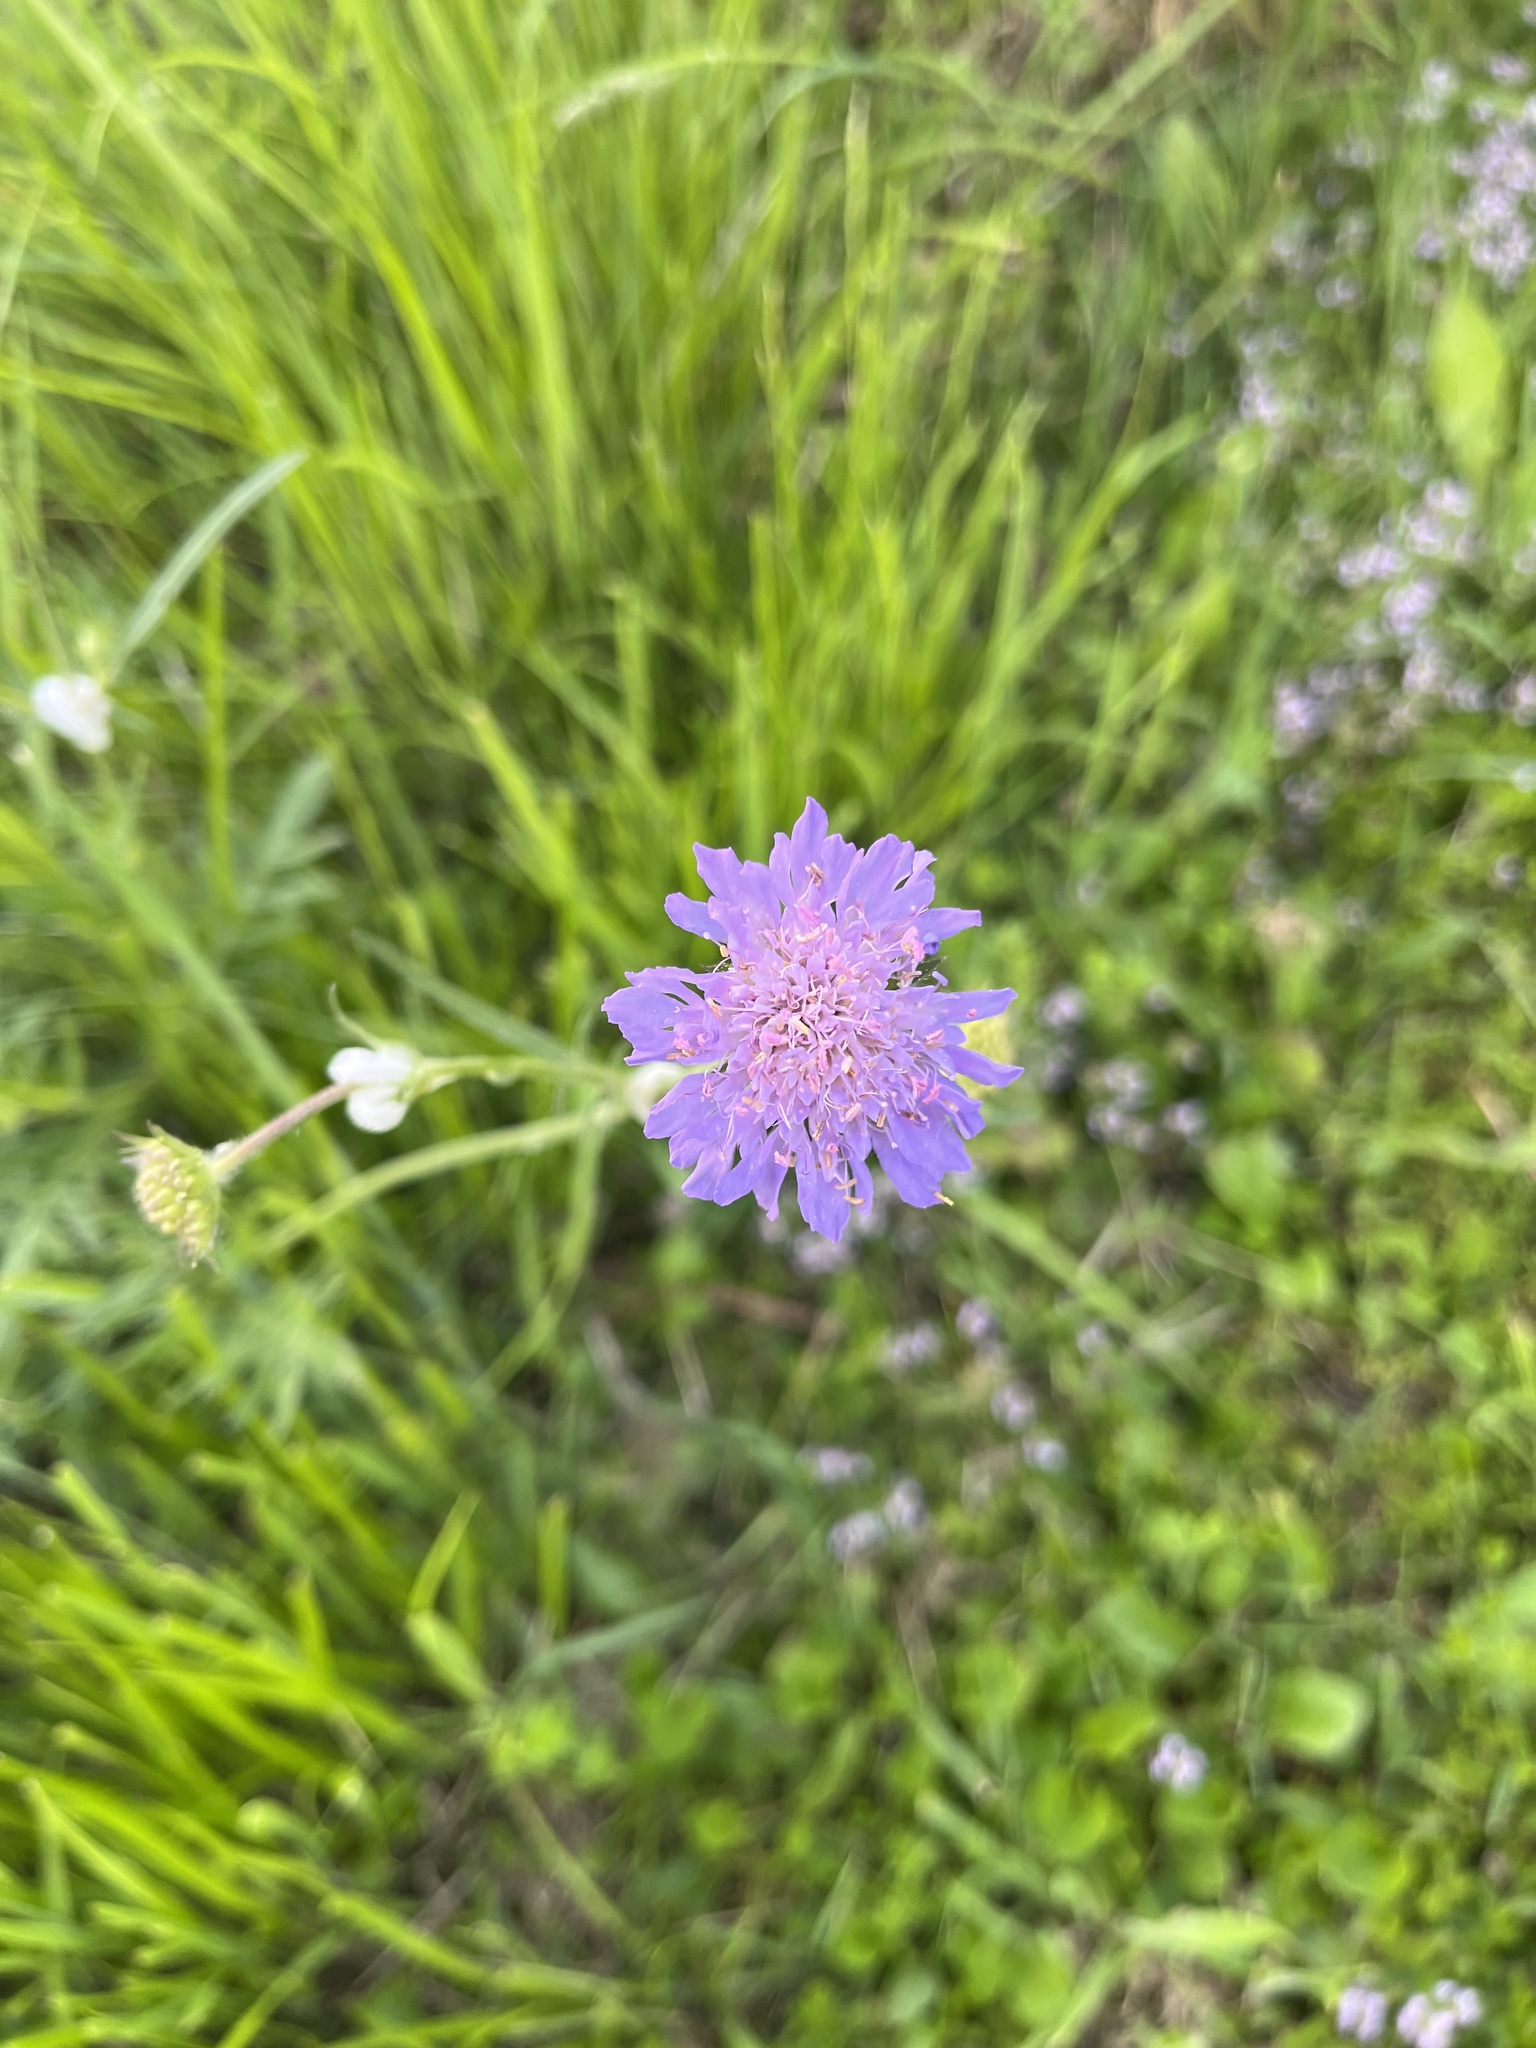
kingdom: Plantae
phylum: Tracheophyta
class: Magnoliopsida
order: Dipsacales
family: Caprifoliaceae
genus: Knautia
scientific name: Knautia arvensis
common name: Field scabiosa
